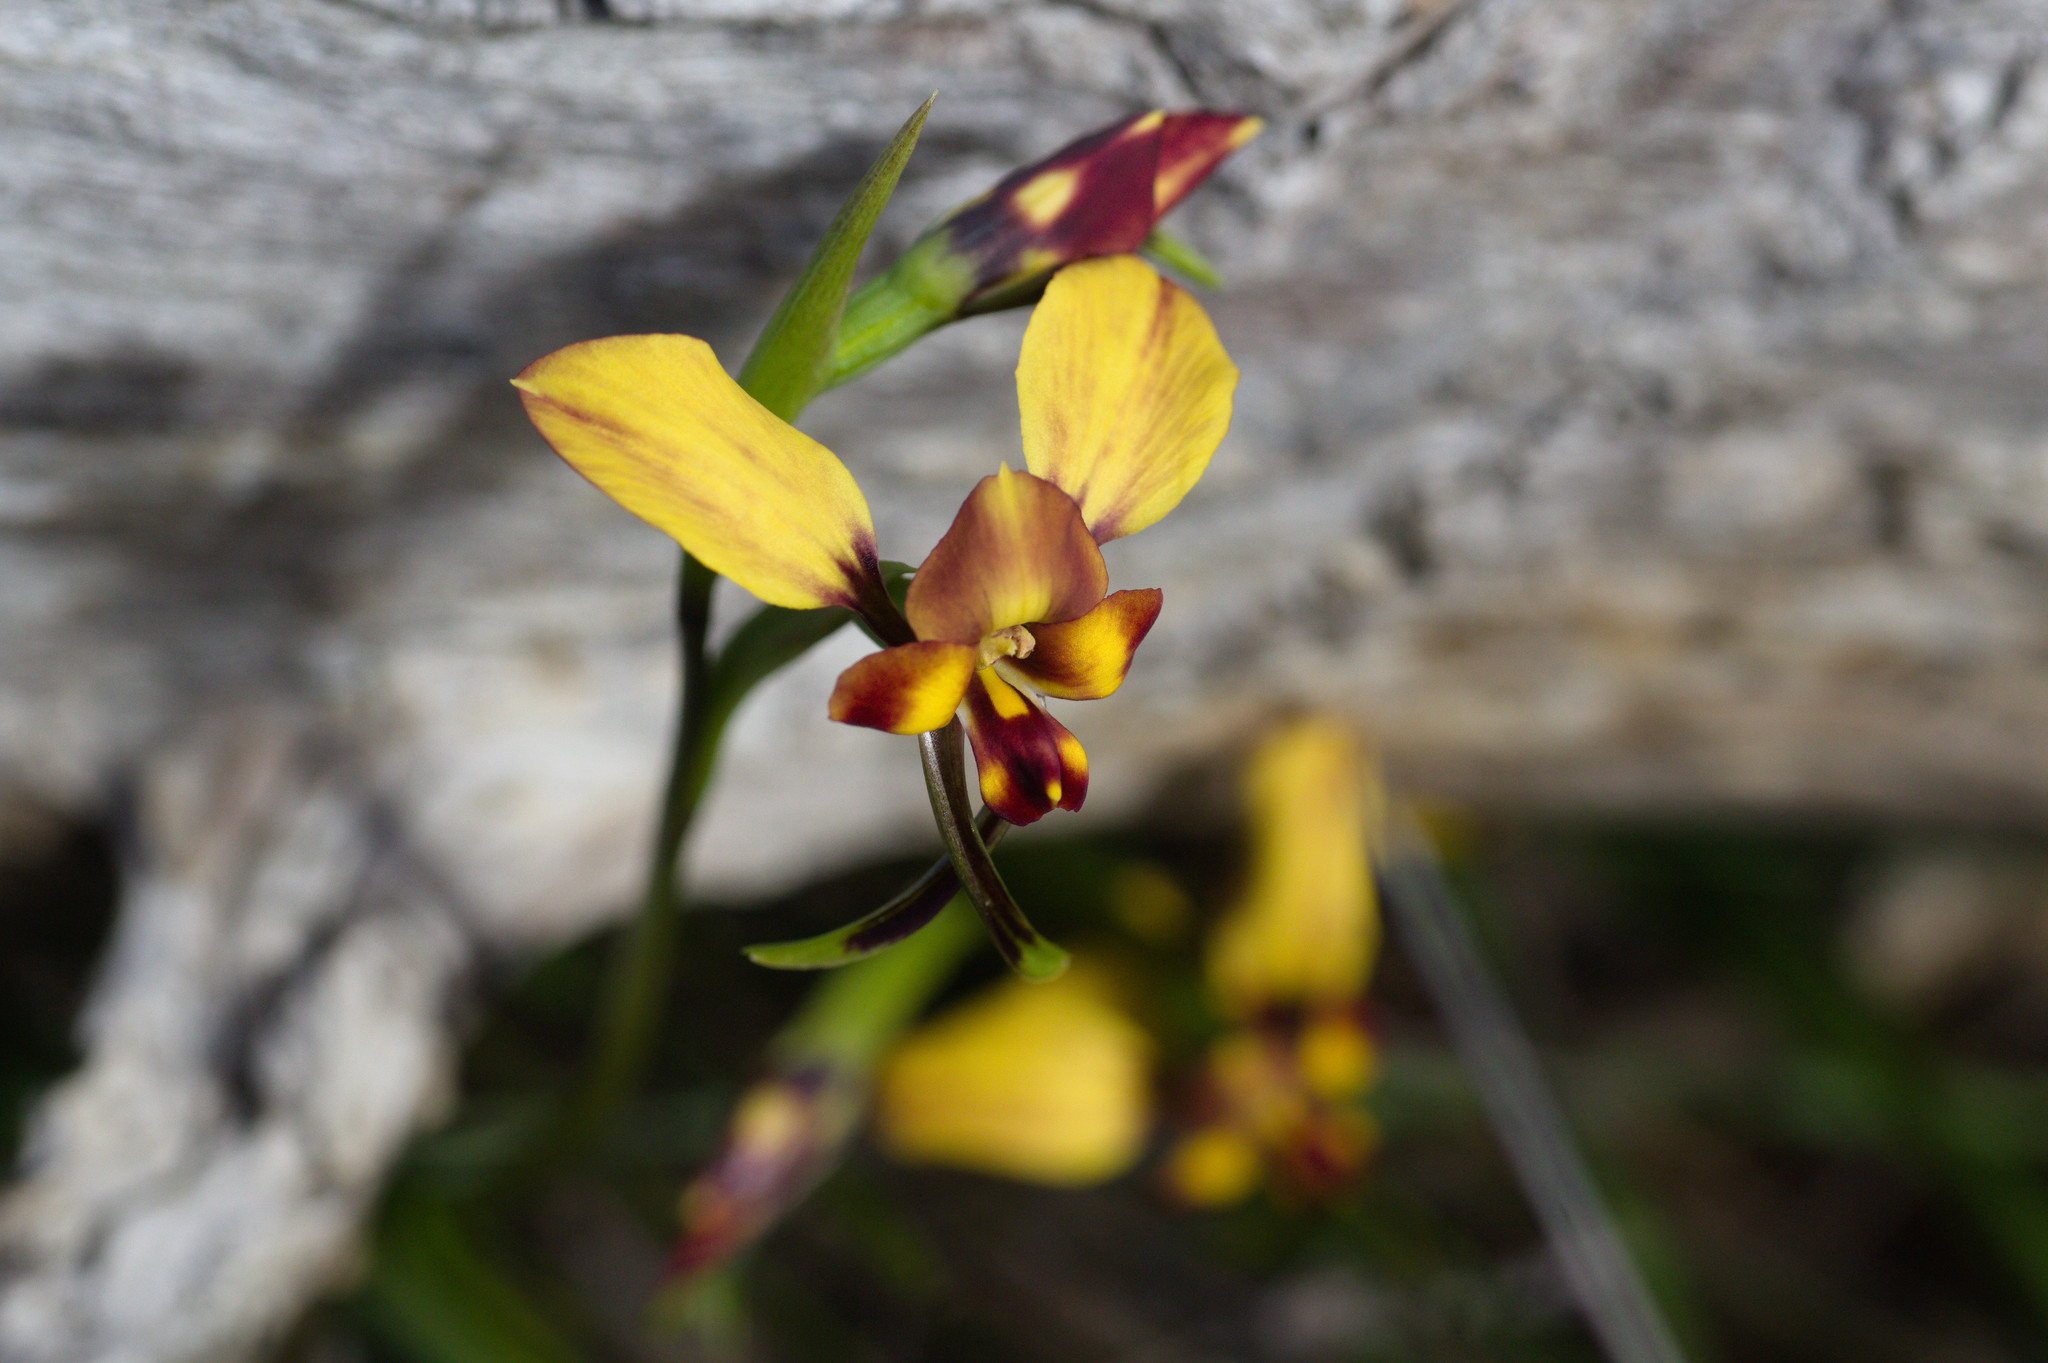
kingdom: Plantae
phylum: Tracheophyta
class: Liliopsida
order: Asparagales
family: Orchidaceae
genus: Diuris
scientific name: Diuris porrifolia
